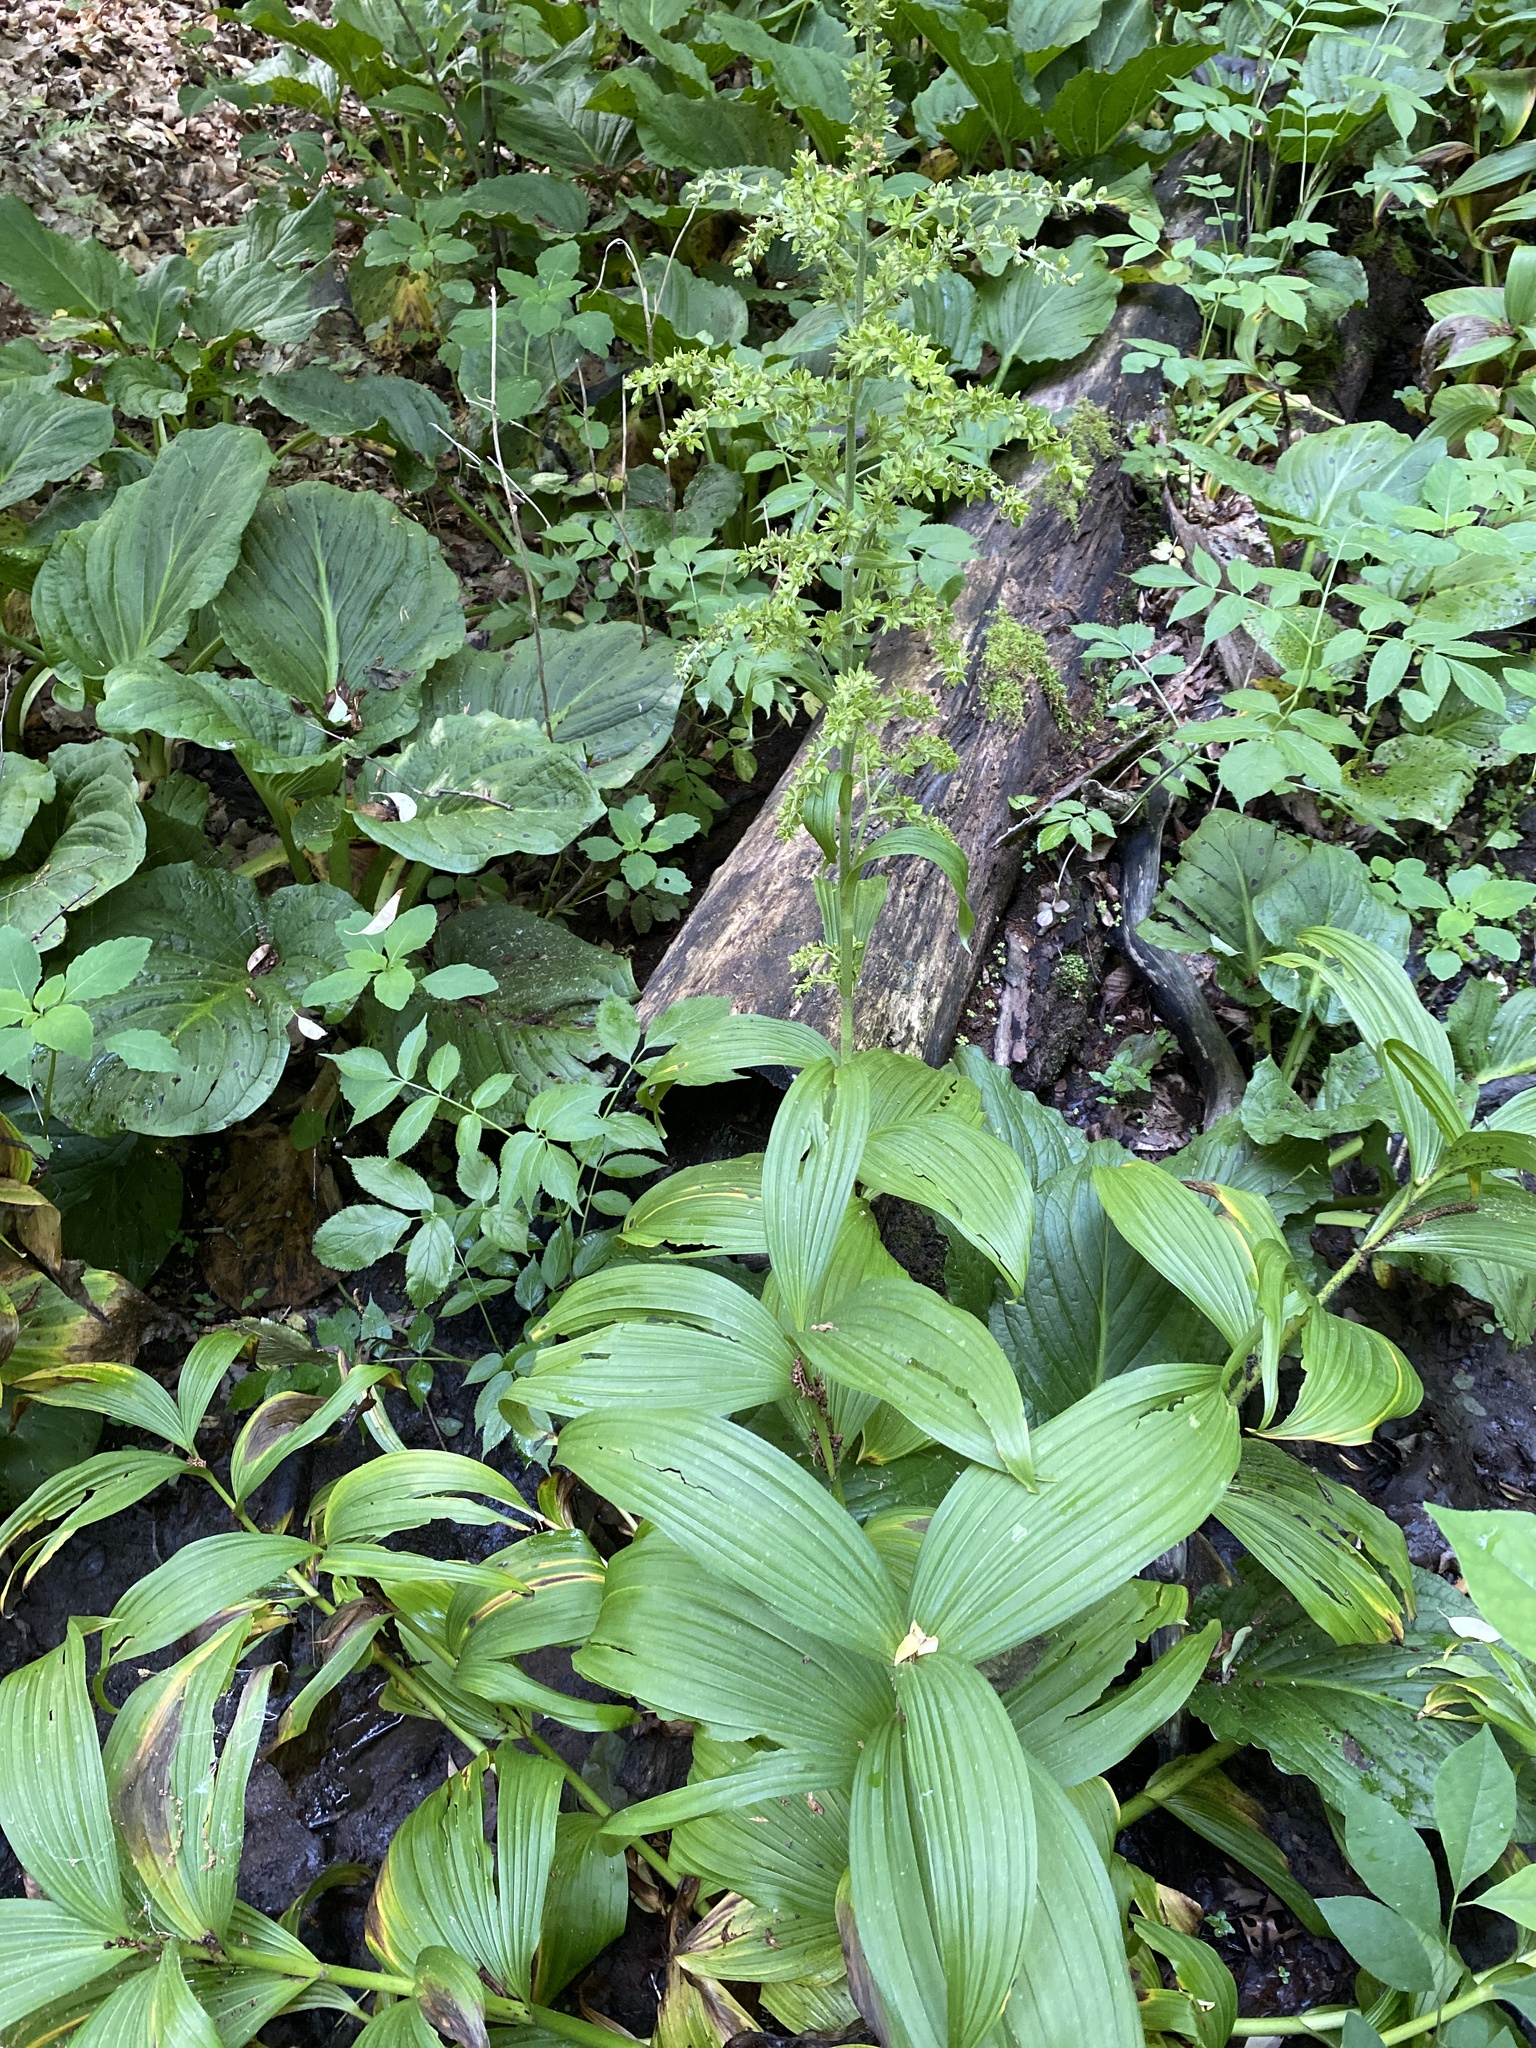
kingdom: Plantae
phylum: Tracheophyta
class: Liliopsida
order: Liliales
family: Melanthiaceae
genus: Veratrum
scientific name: Veratrum viride
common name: American false hellebore
